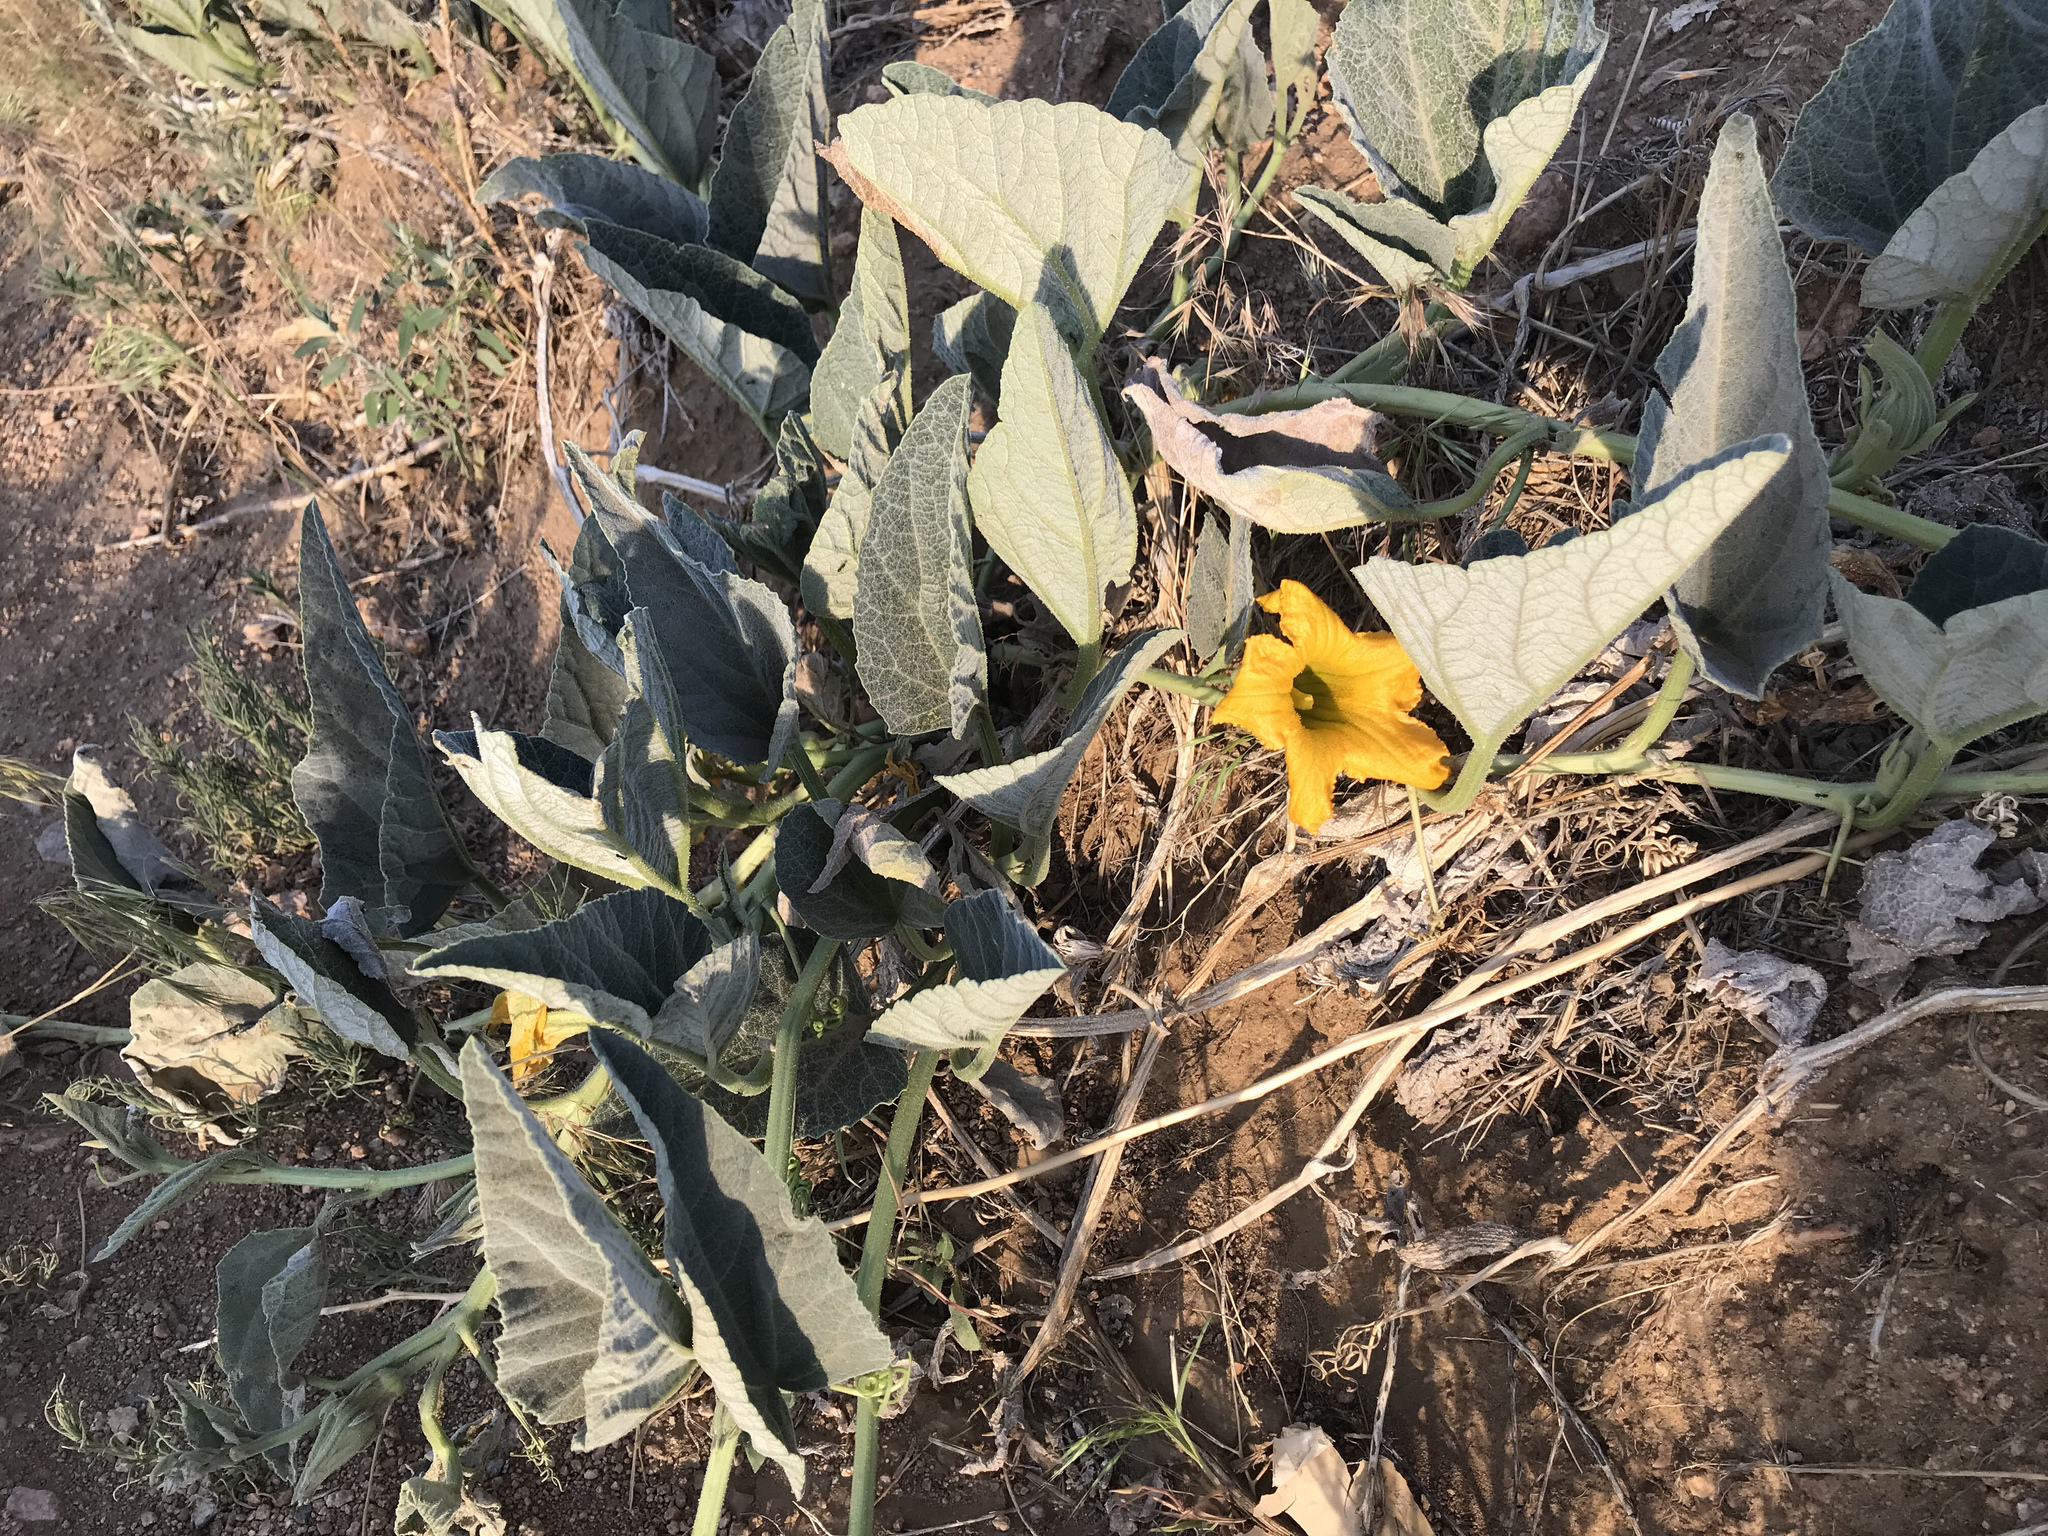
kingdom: Plantae
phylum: Tracheophyta
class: Magnoliopsida
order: Cucurbitales
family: Cucurbitaceae
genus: Cucurbita
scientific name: Cucurbita foetidissima
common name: Buffalo gourd
